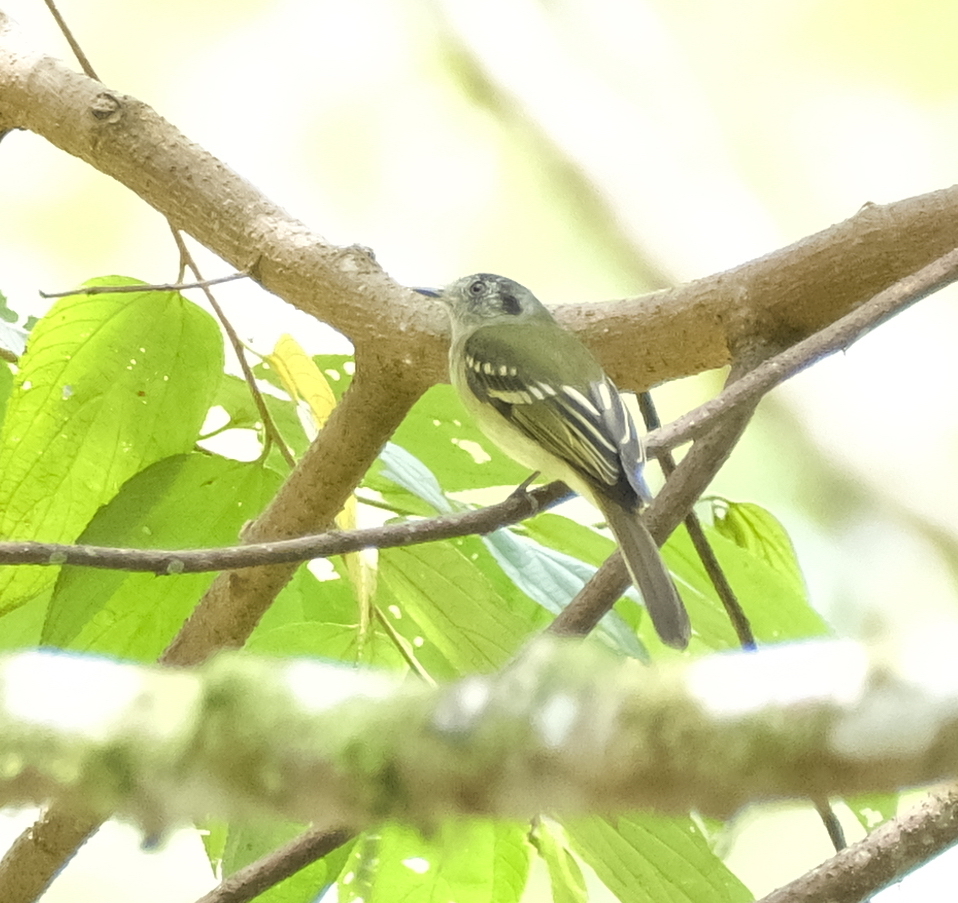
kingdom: Animalia
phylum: Chordata
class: Aves
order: Passeriformes
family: Tyrannidae
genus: Leptopogon
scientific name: Leptopogon superciliaris
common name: Slaty-capped flycatcher
